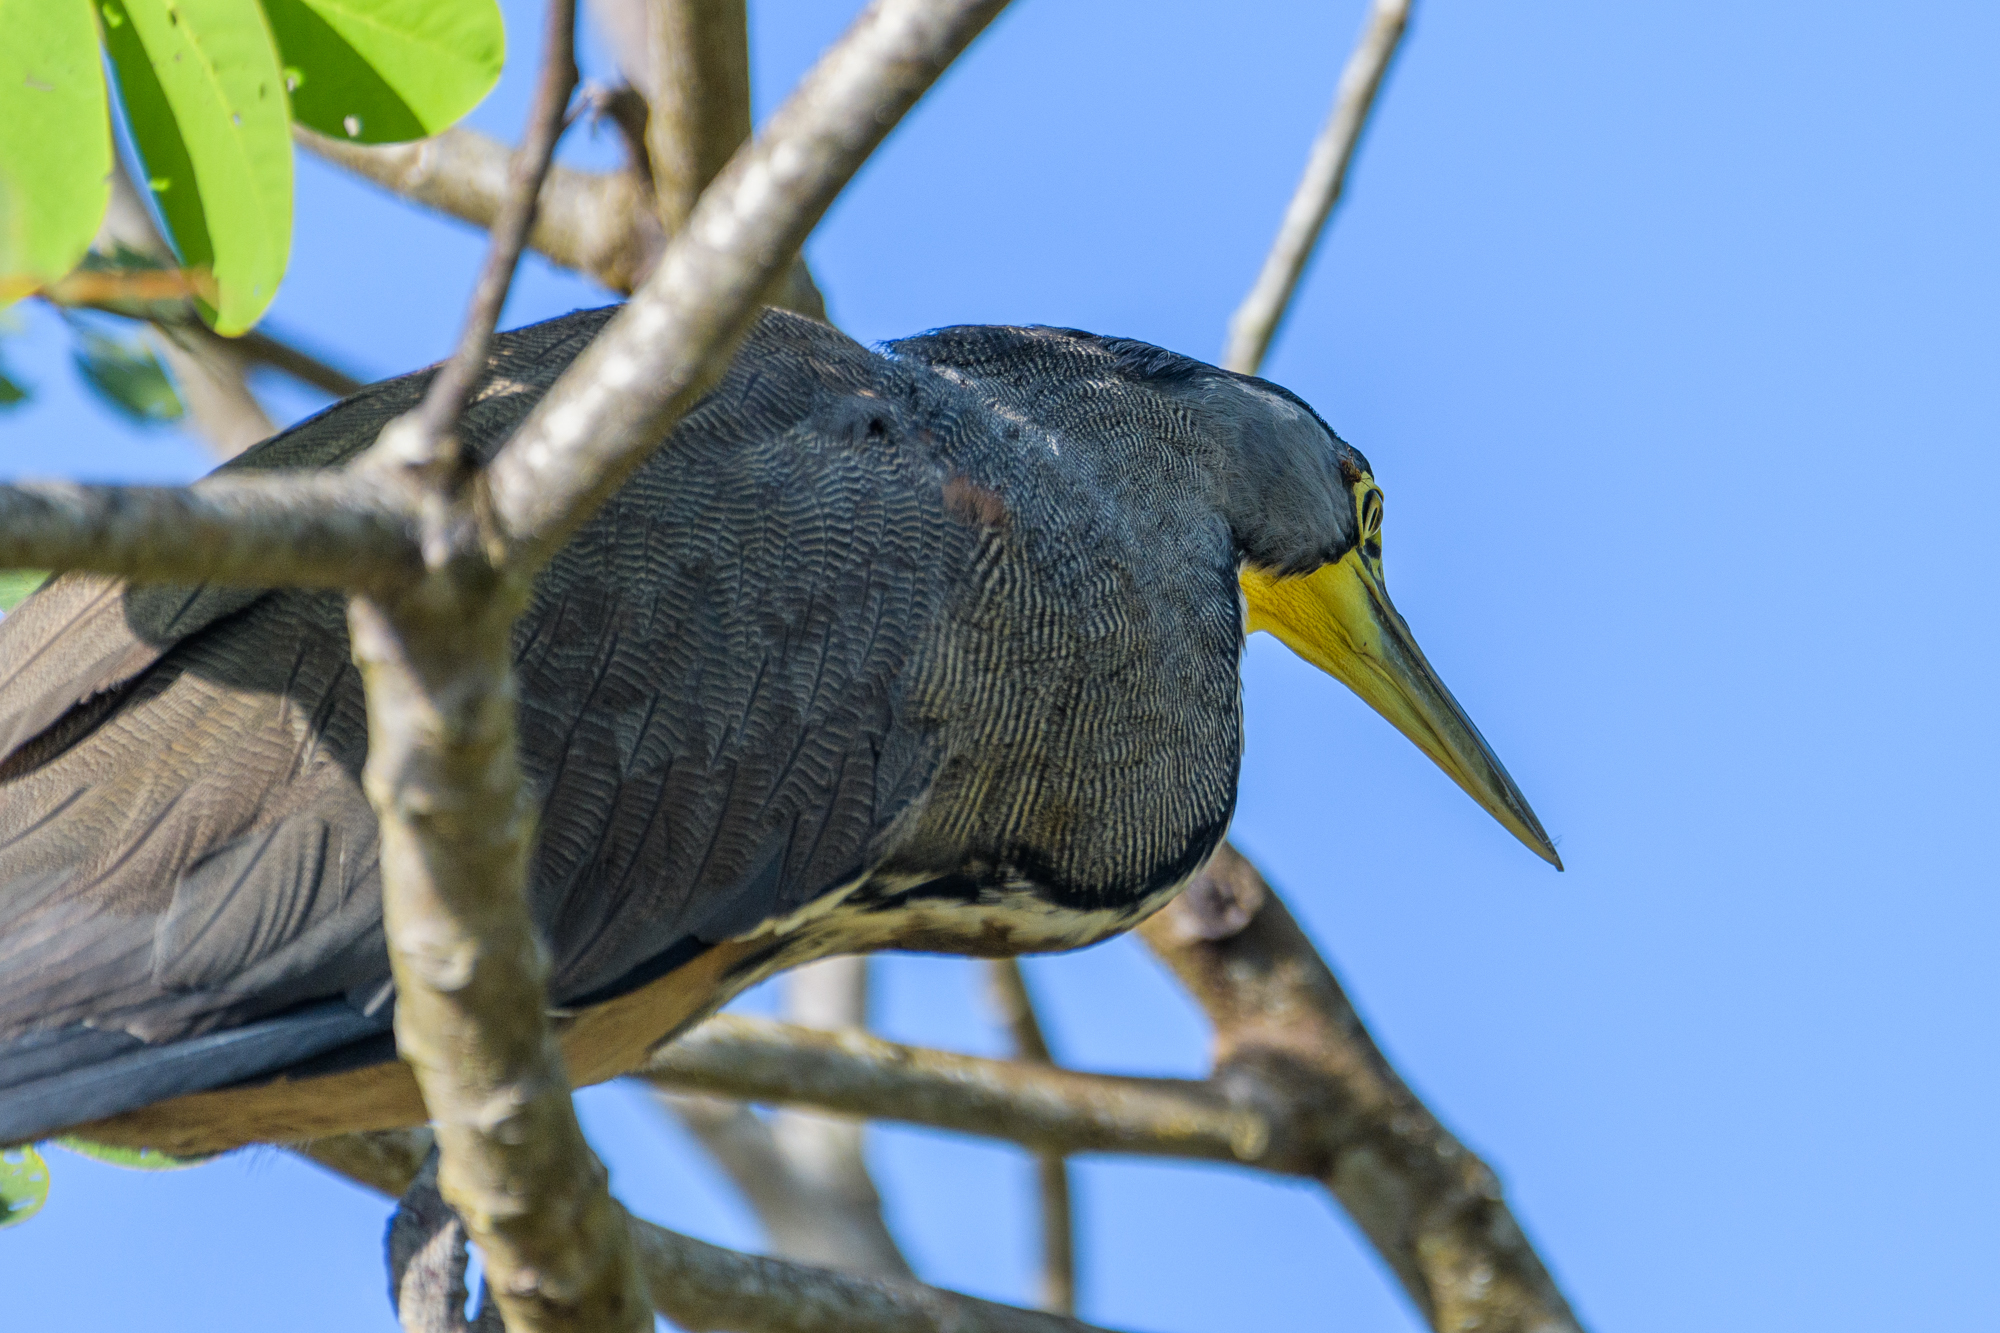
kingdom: Animalia
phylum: Chordata
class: Aves
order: Pelecaniformes
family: Ardeidae
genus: Tigrisoma
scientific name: Tigrisoma mexicanum
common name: Bare-throated tiger-heron
